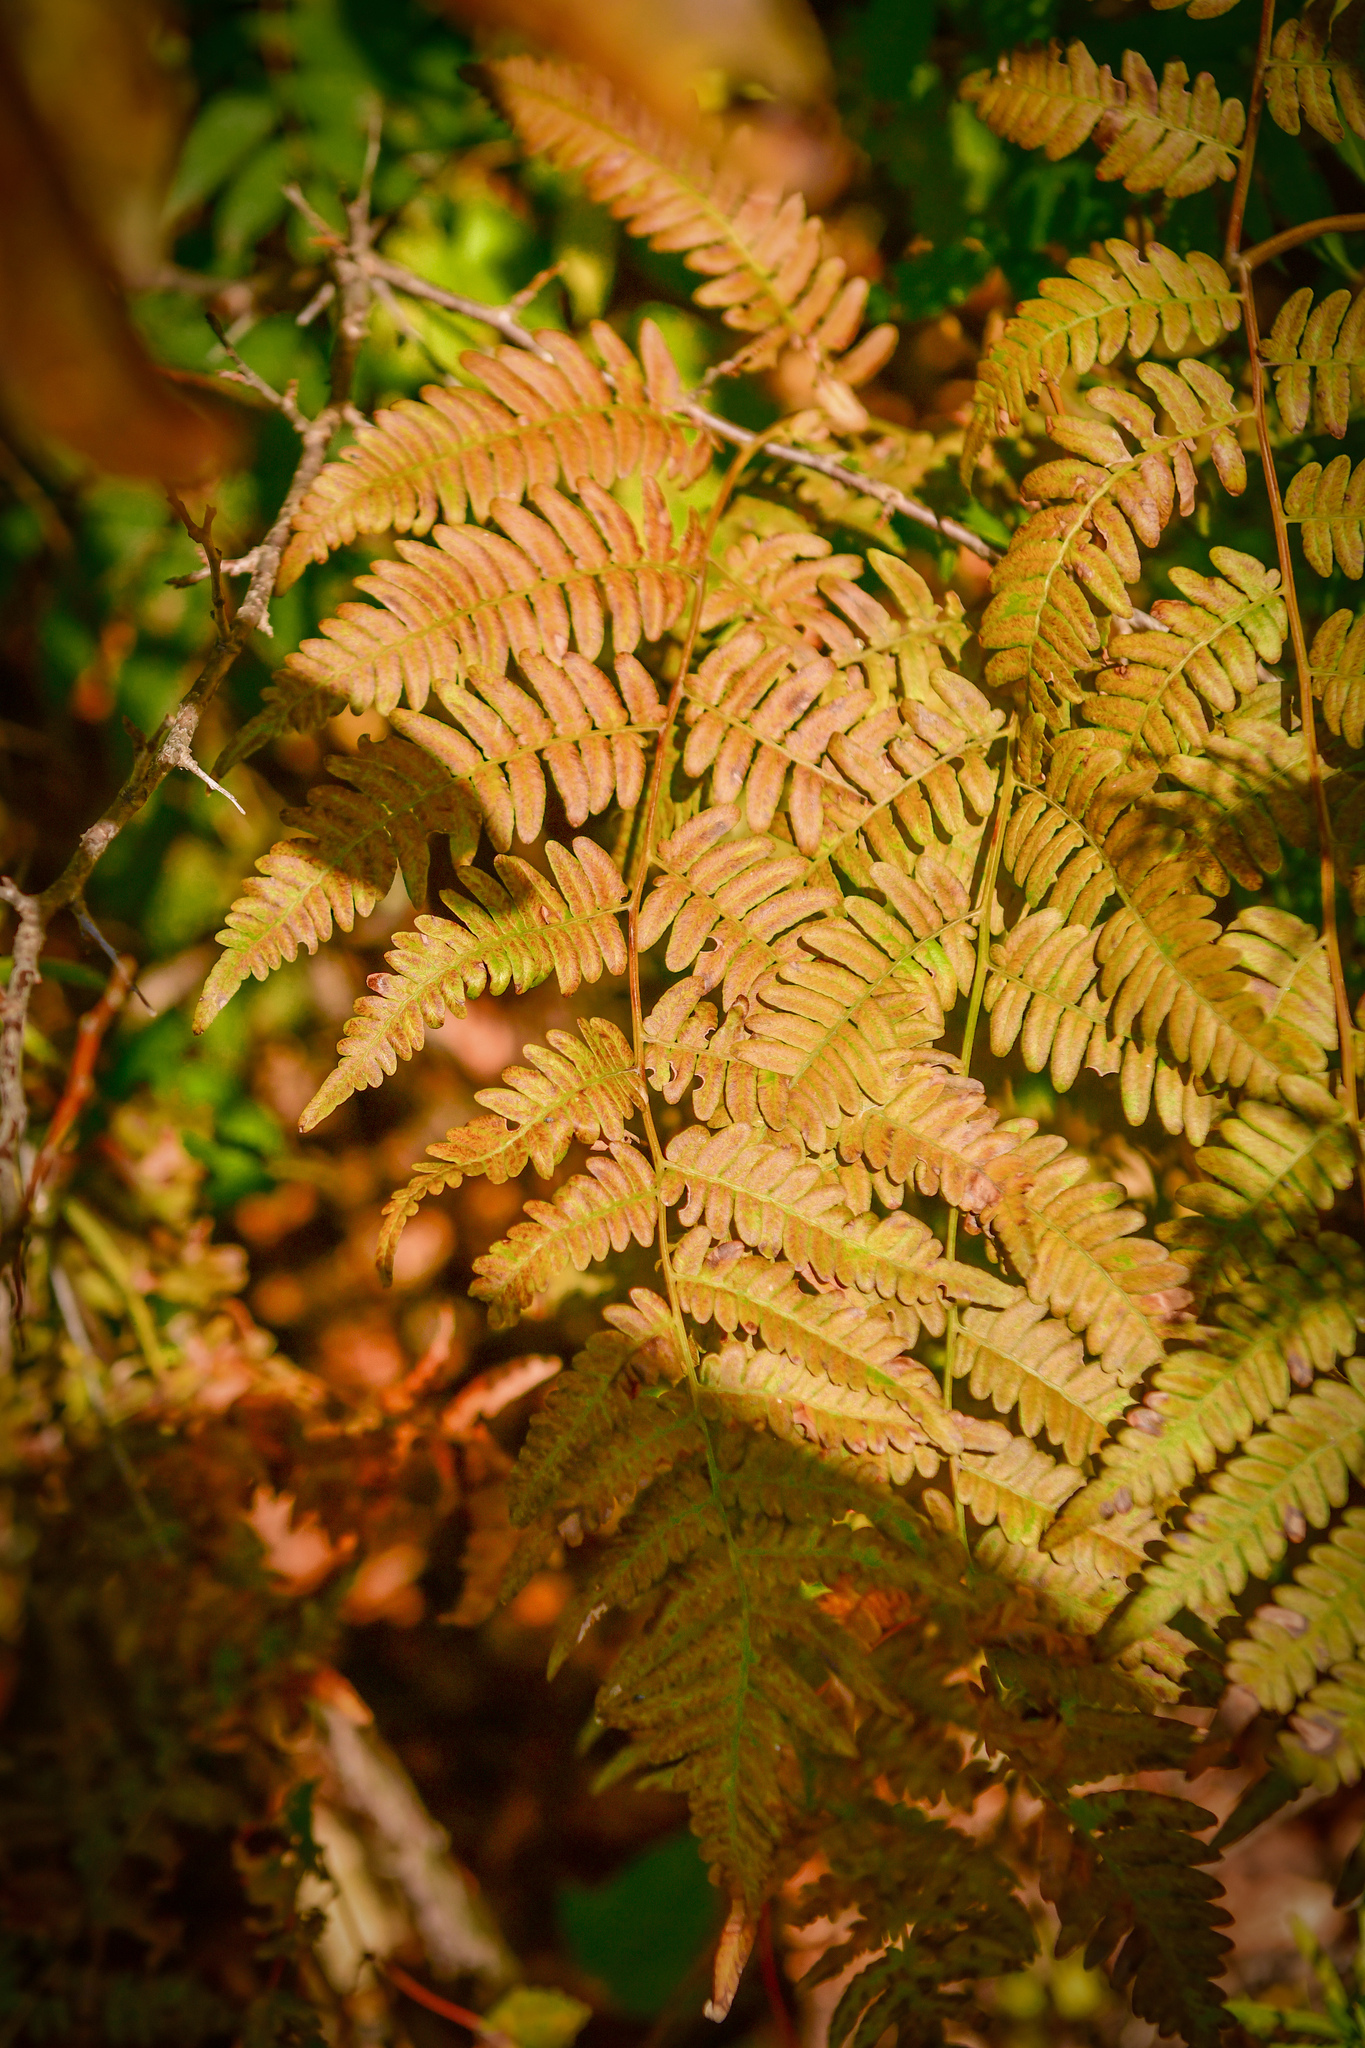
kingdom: Plantae
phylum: Tracheophyta
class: Polypodiopsida
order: Polypodiales
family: Dennstaedtiaceae
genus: Pteridium
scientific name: Pteridium aquilinum
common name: Bracken
